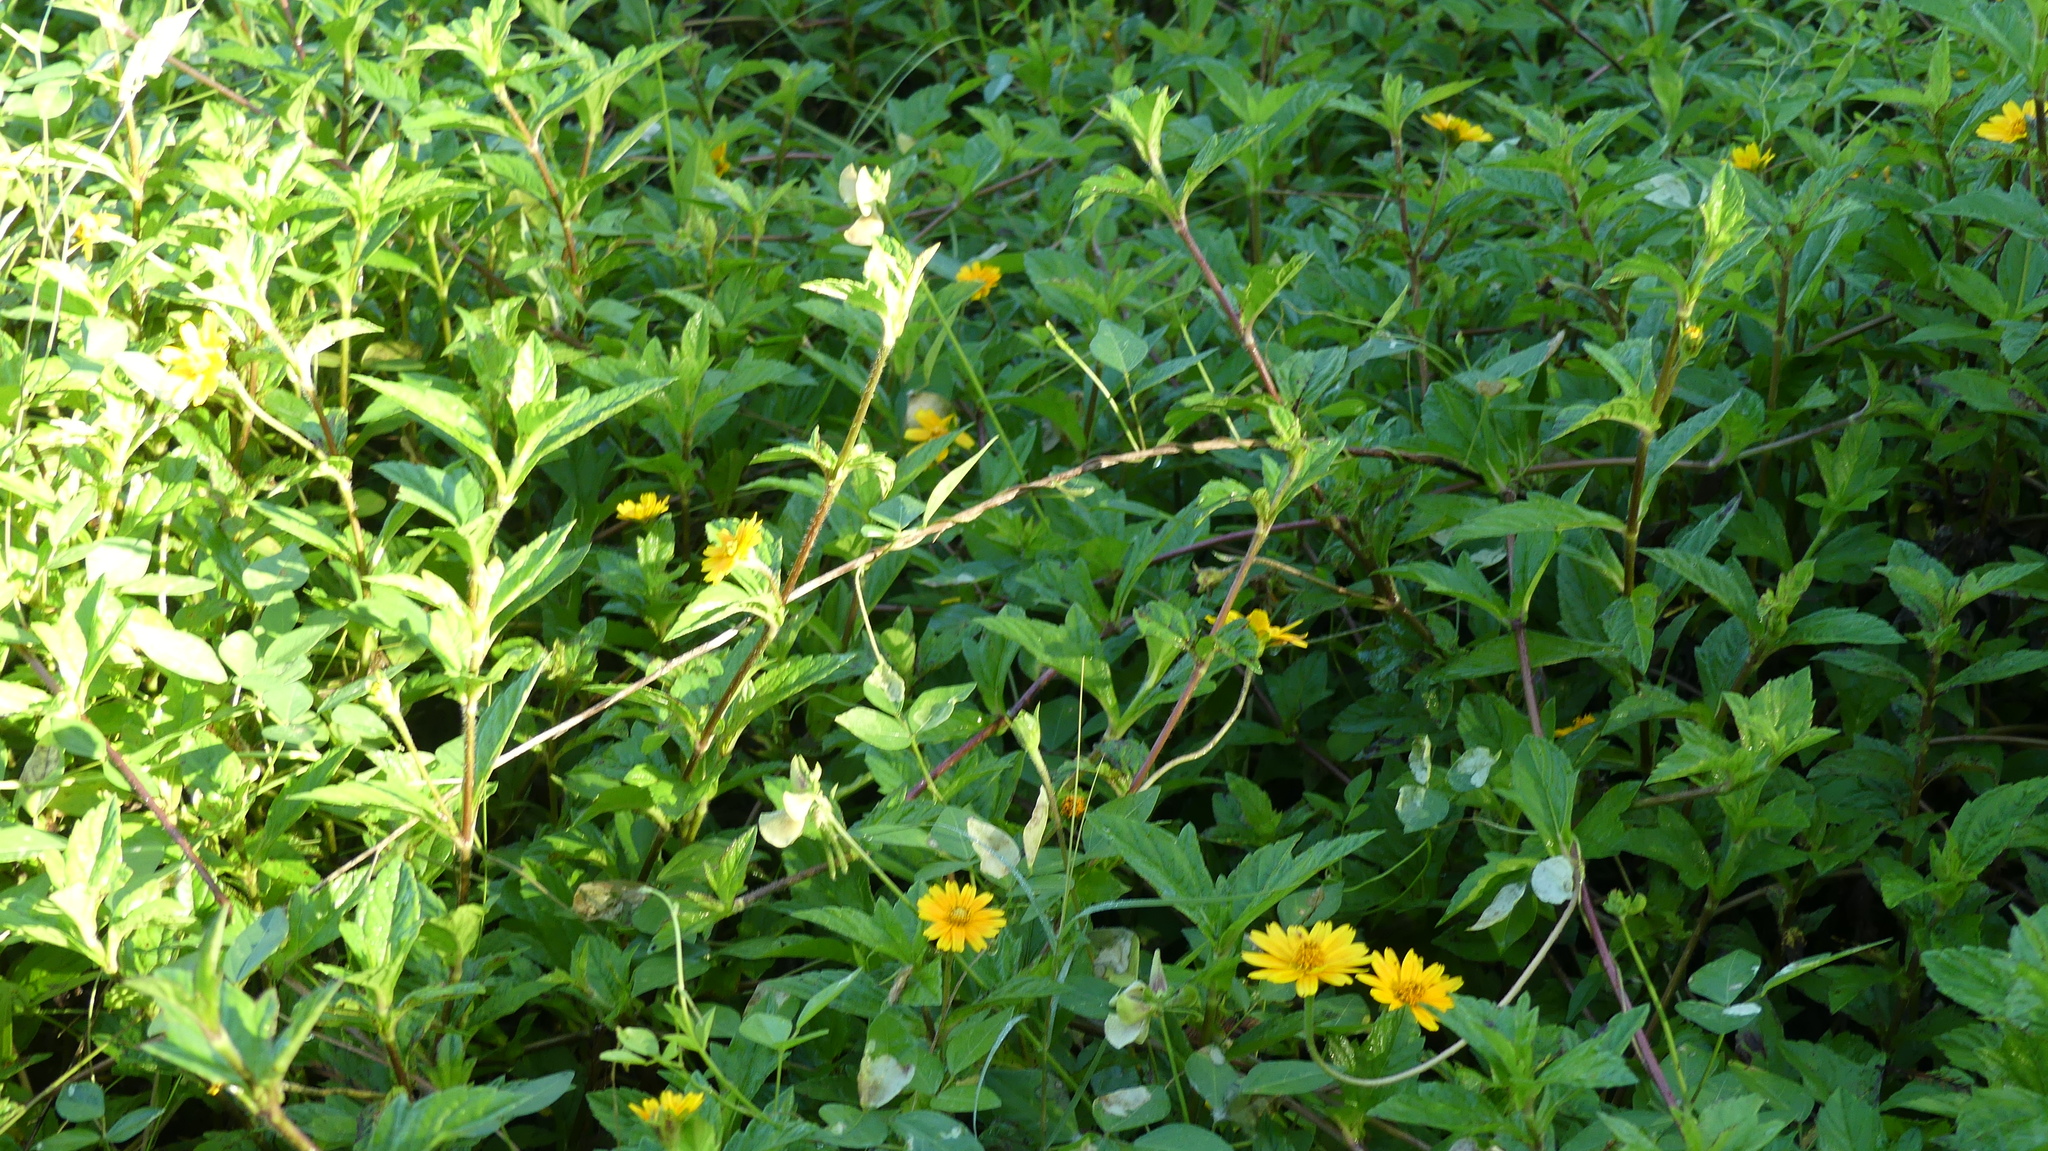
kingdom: Plantae
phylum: Tracheophyta
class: Magnoliopsida
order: Asterales
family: Asteraceae
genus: Sphagneticola
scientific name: Sphagneticola trilobata
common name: Bay biscayne creeping-oxeye
